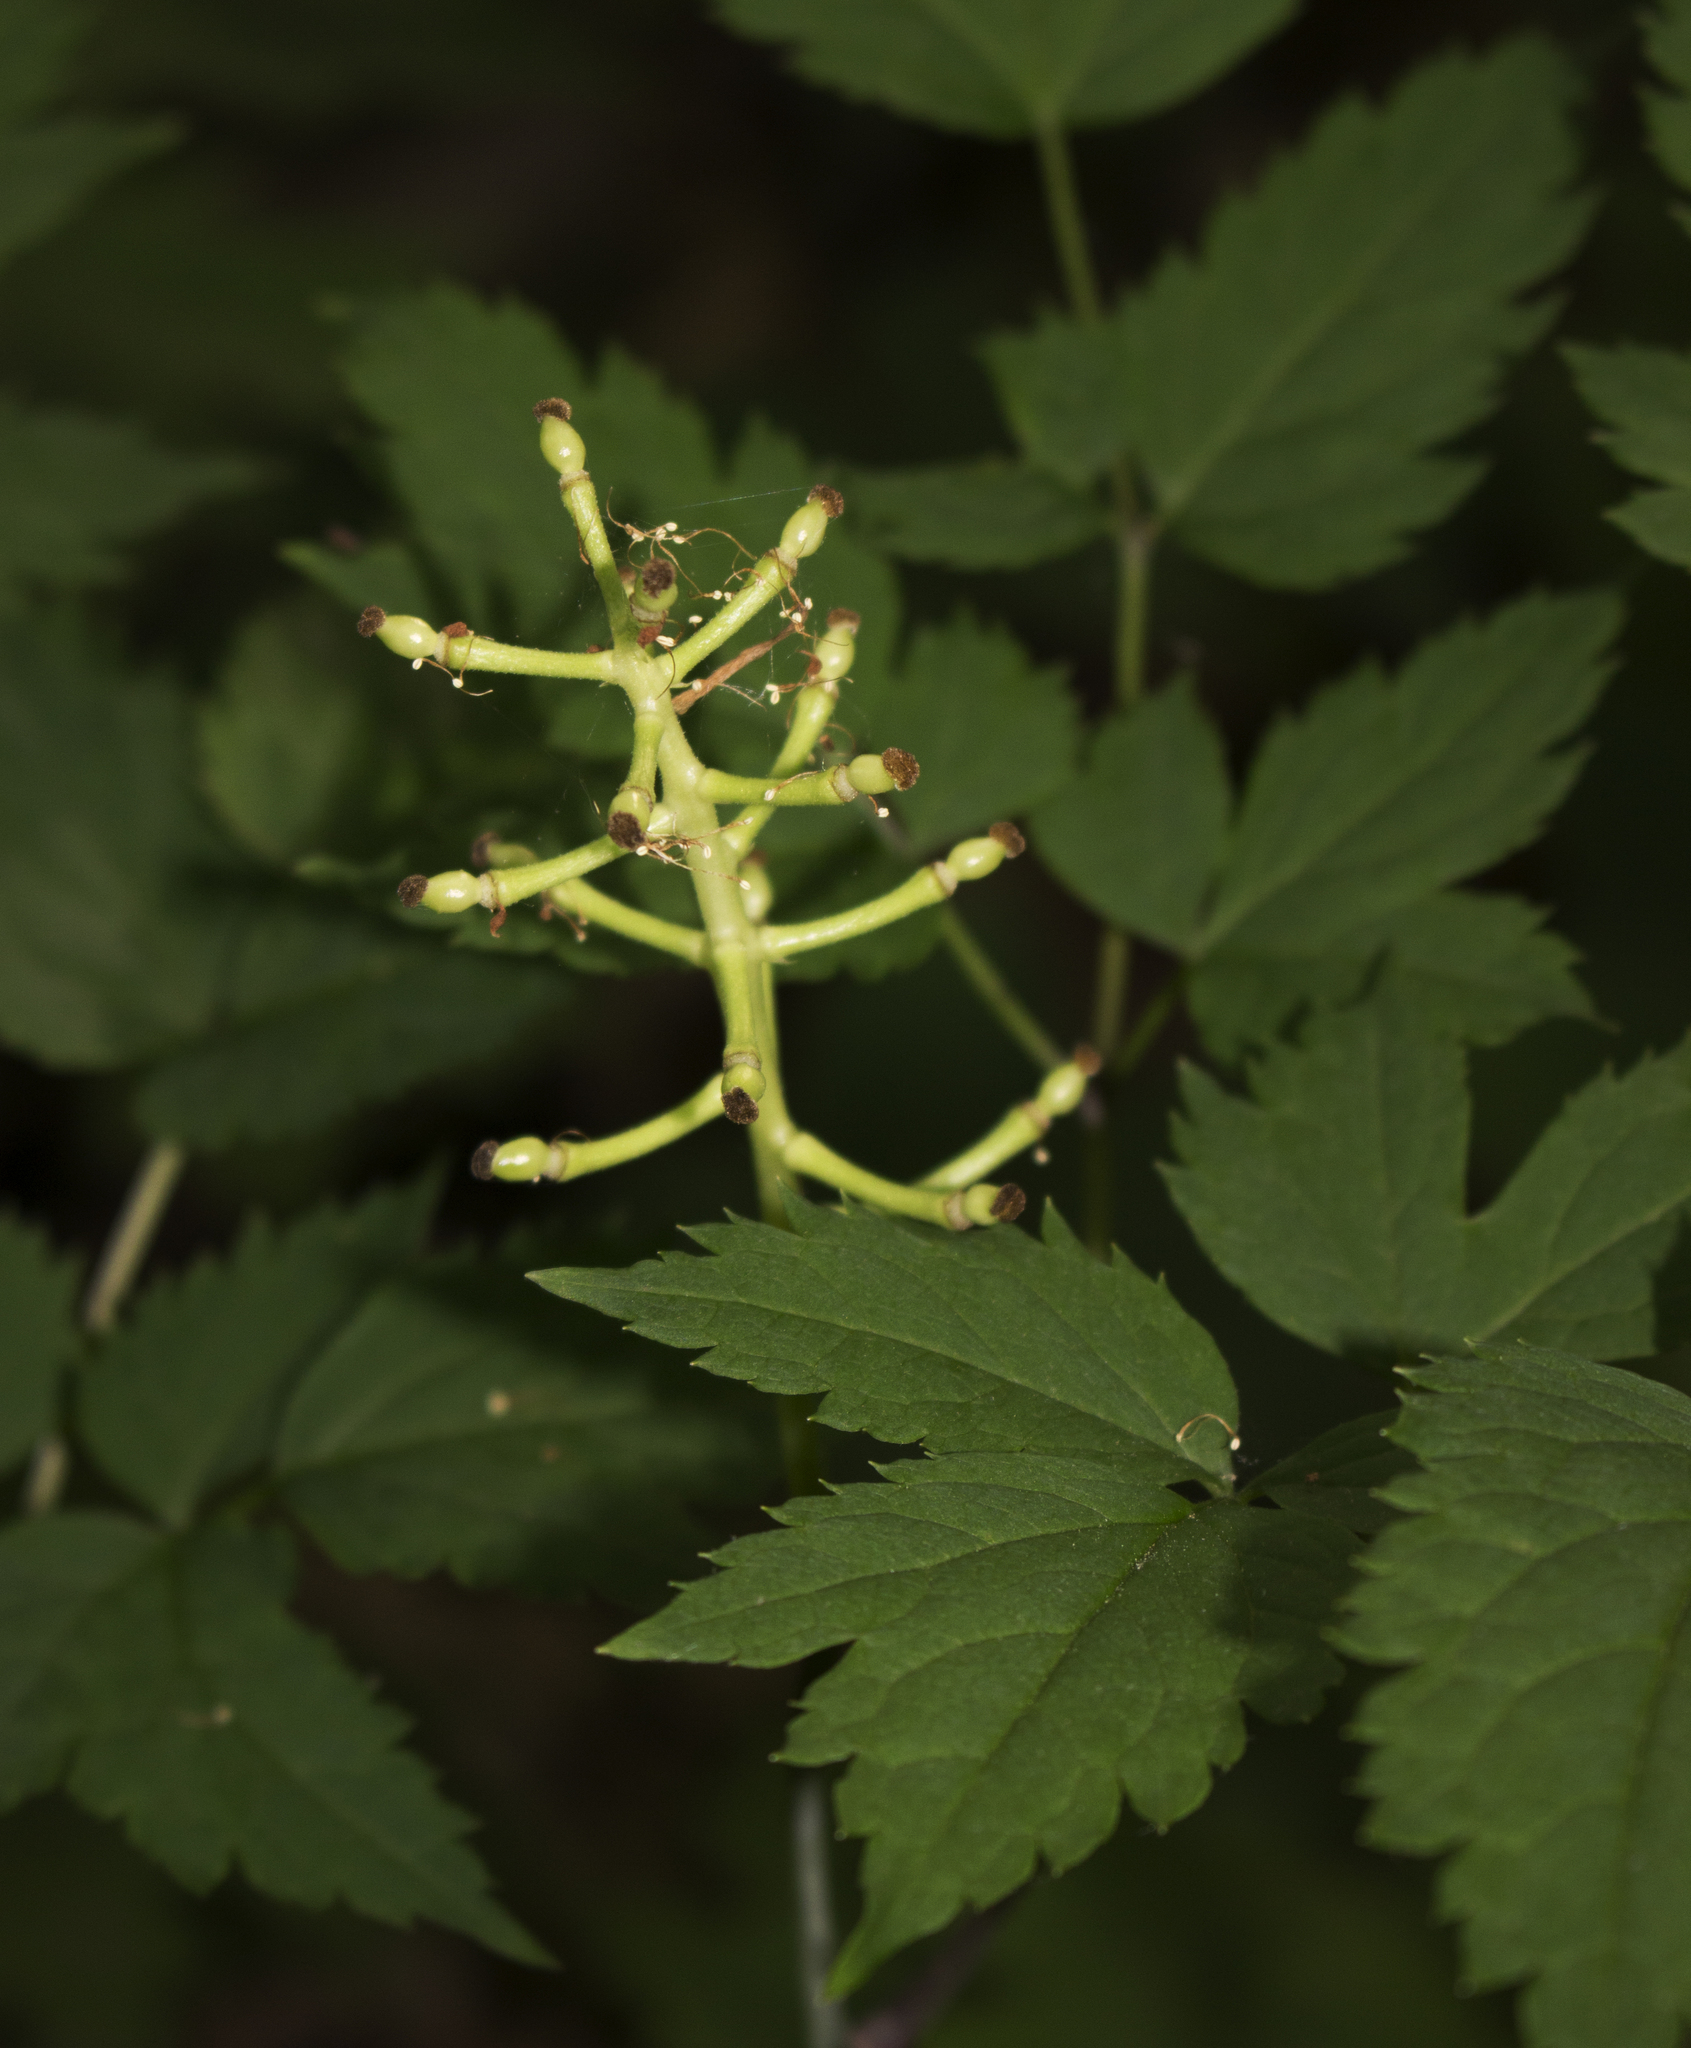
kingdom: Plantae
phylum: Tracheophyta
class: Magnoliopsida
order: Ranunculales
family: Ranunculaceae
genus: Actaea
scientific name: Actaea pachypoda
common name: Doll's-eyes
